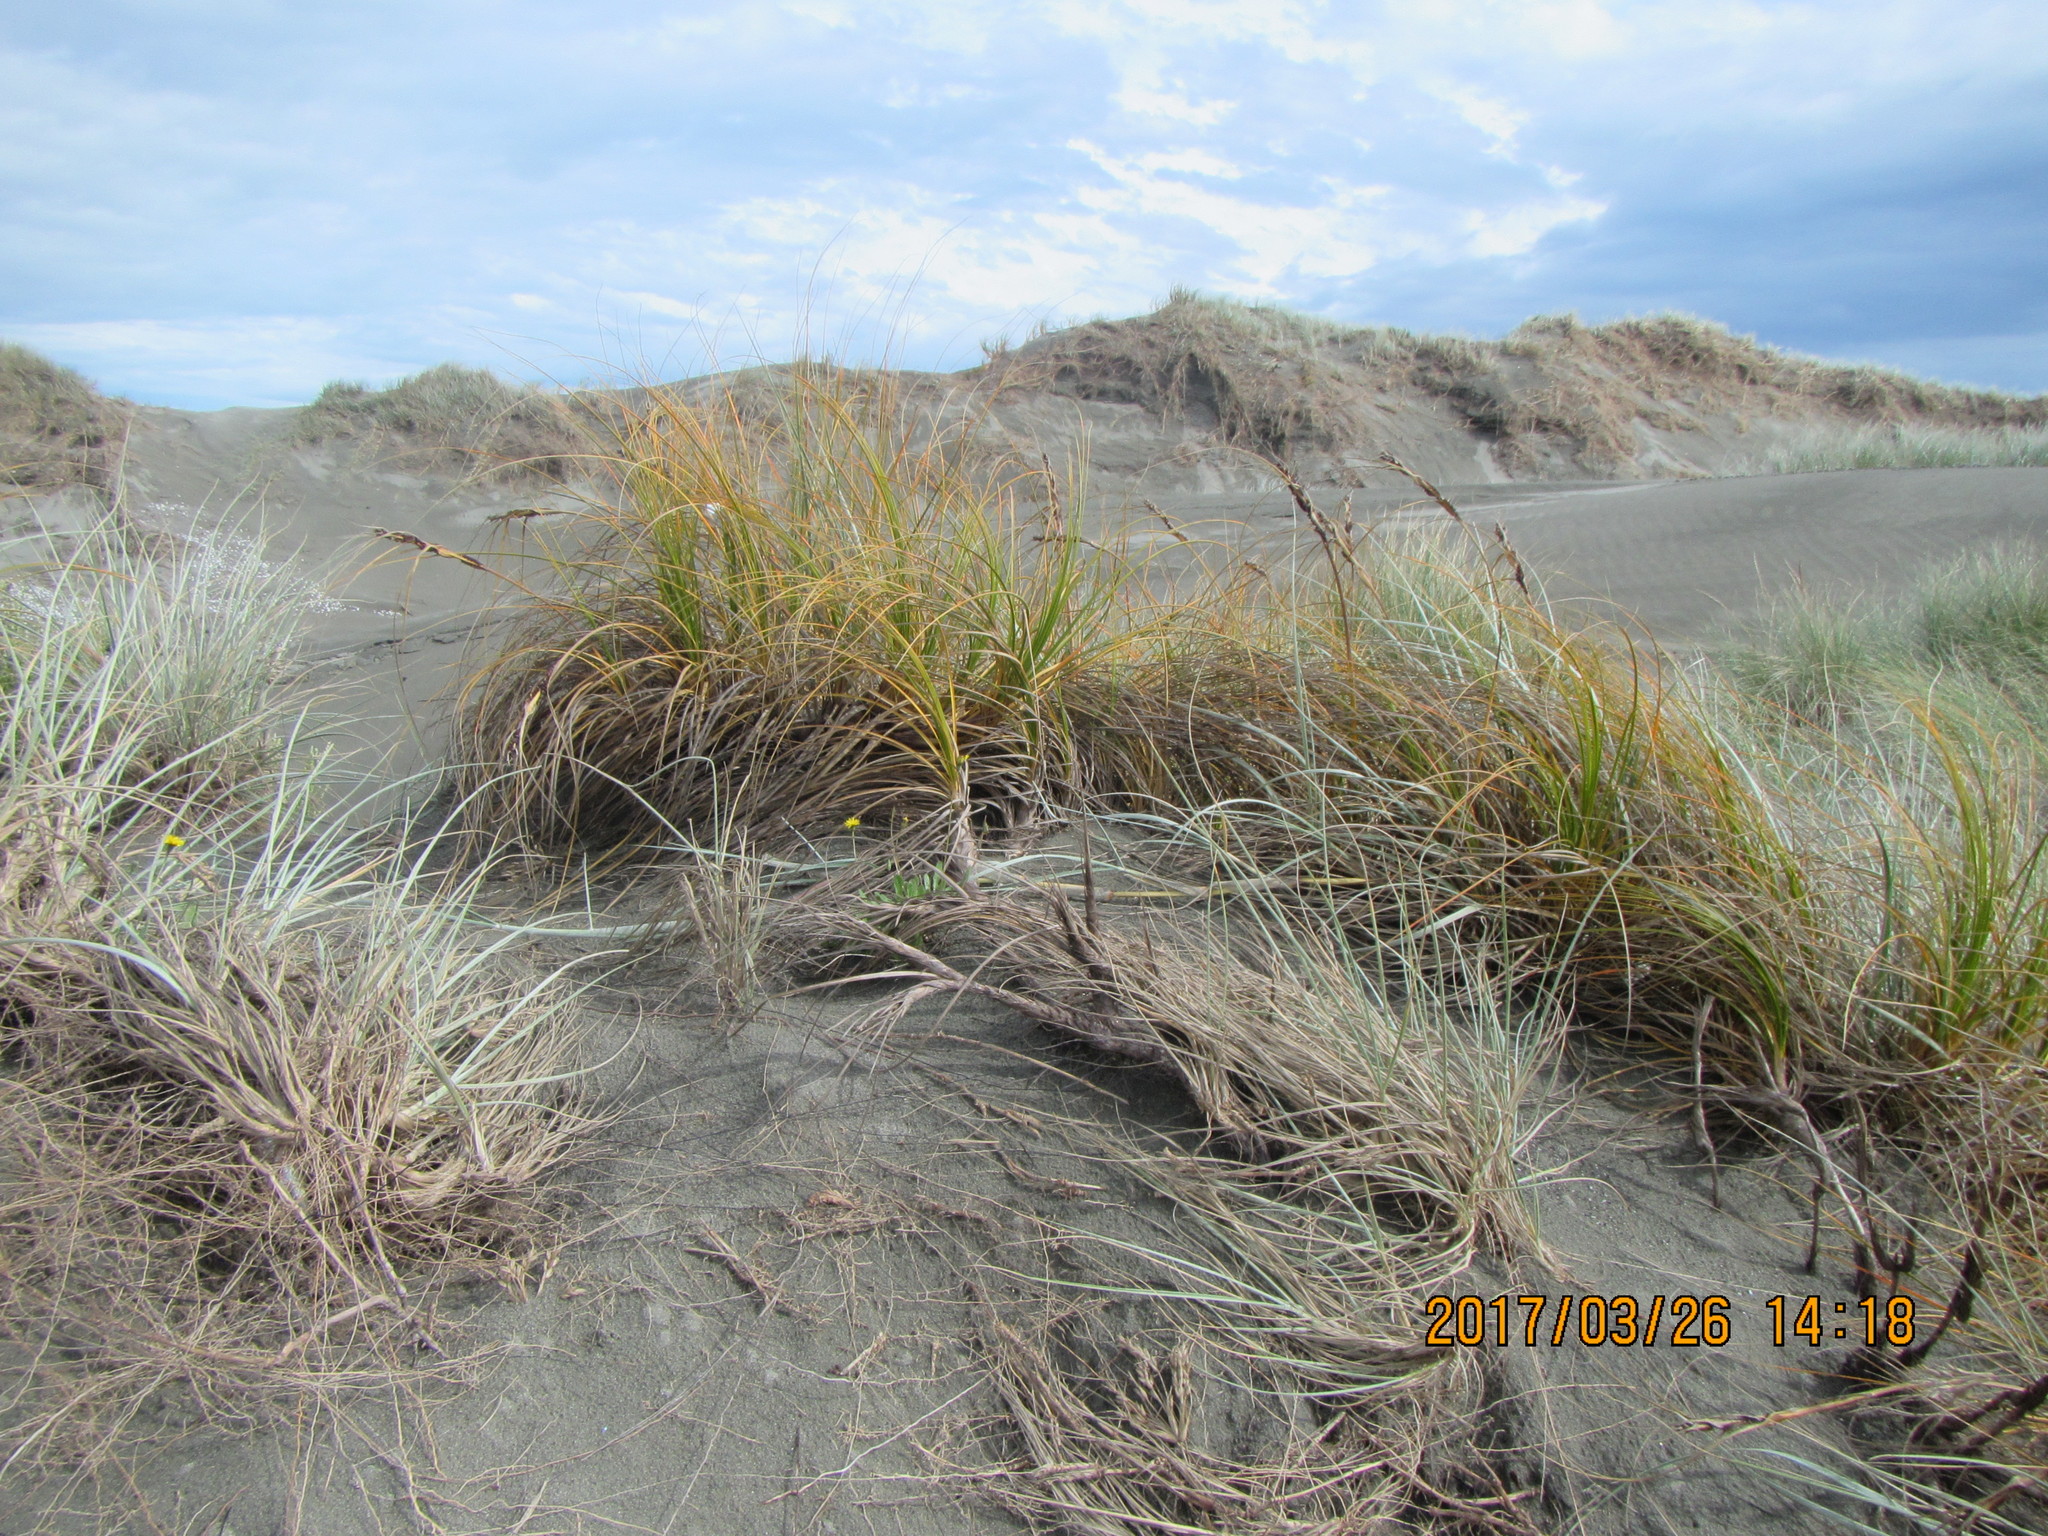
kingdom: Plantae
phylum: Tracheophyta
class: Liliopsida
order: Poales
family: Cyperaceae
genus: Ficinia
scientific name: Ficinia spiralis
